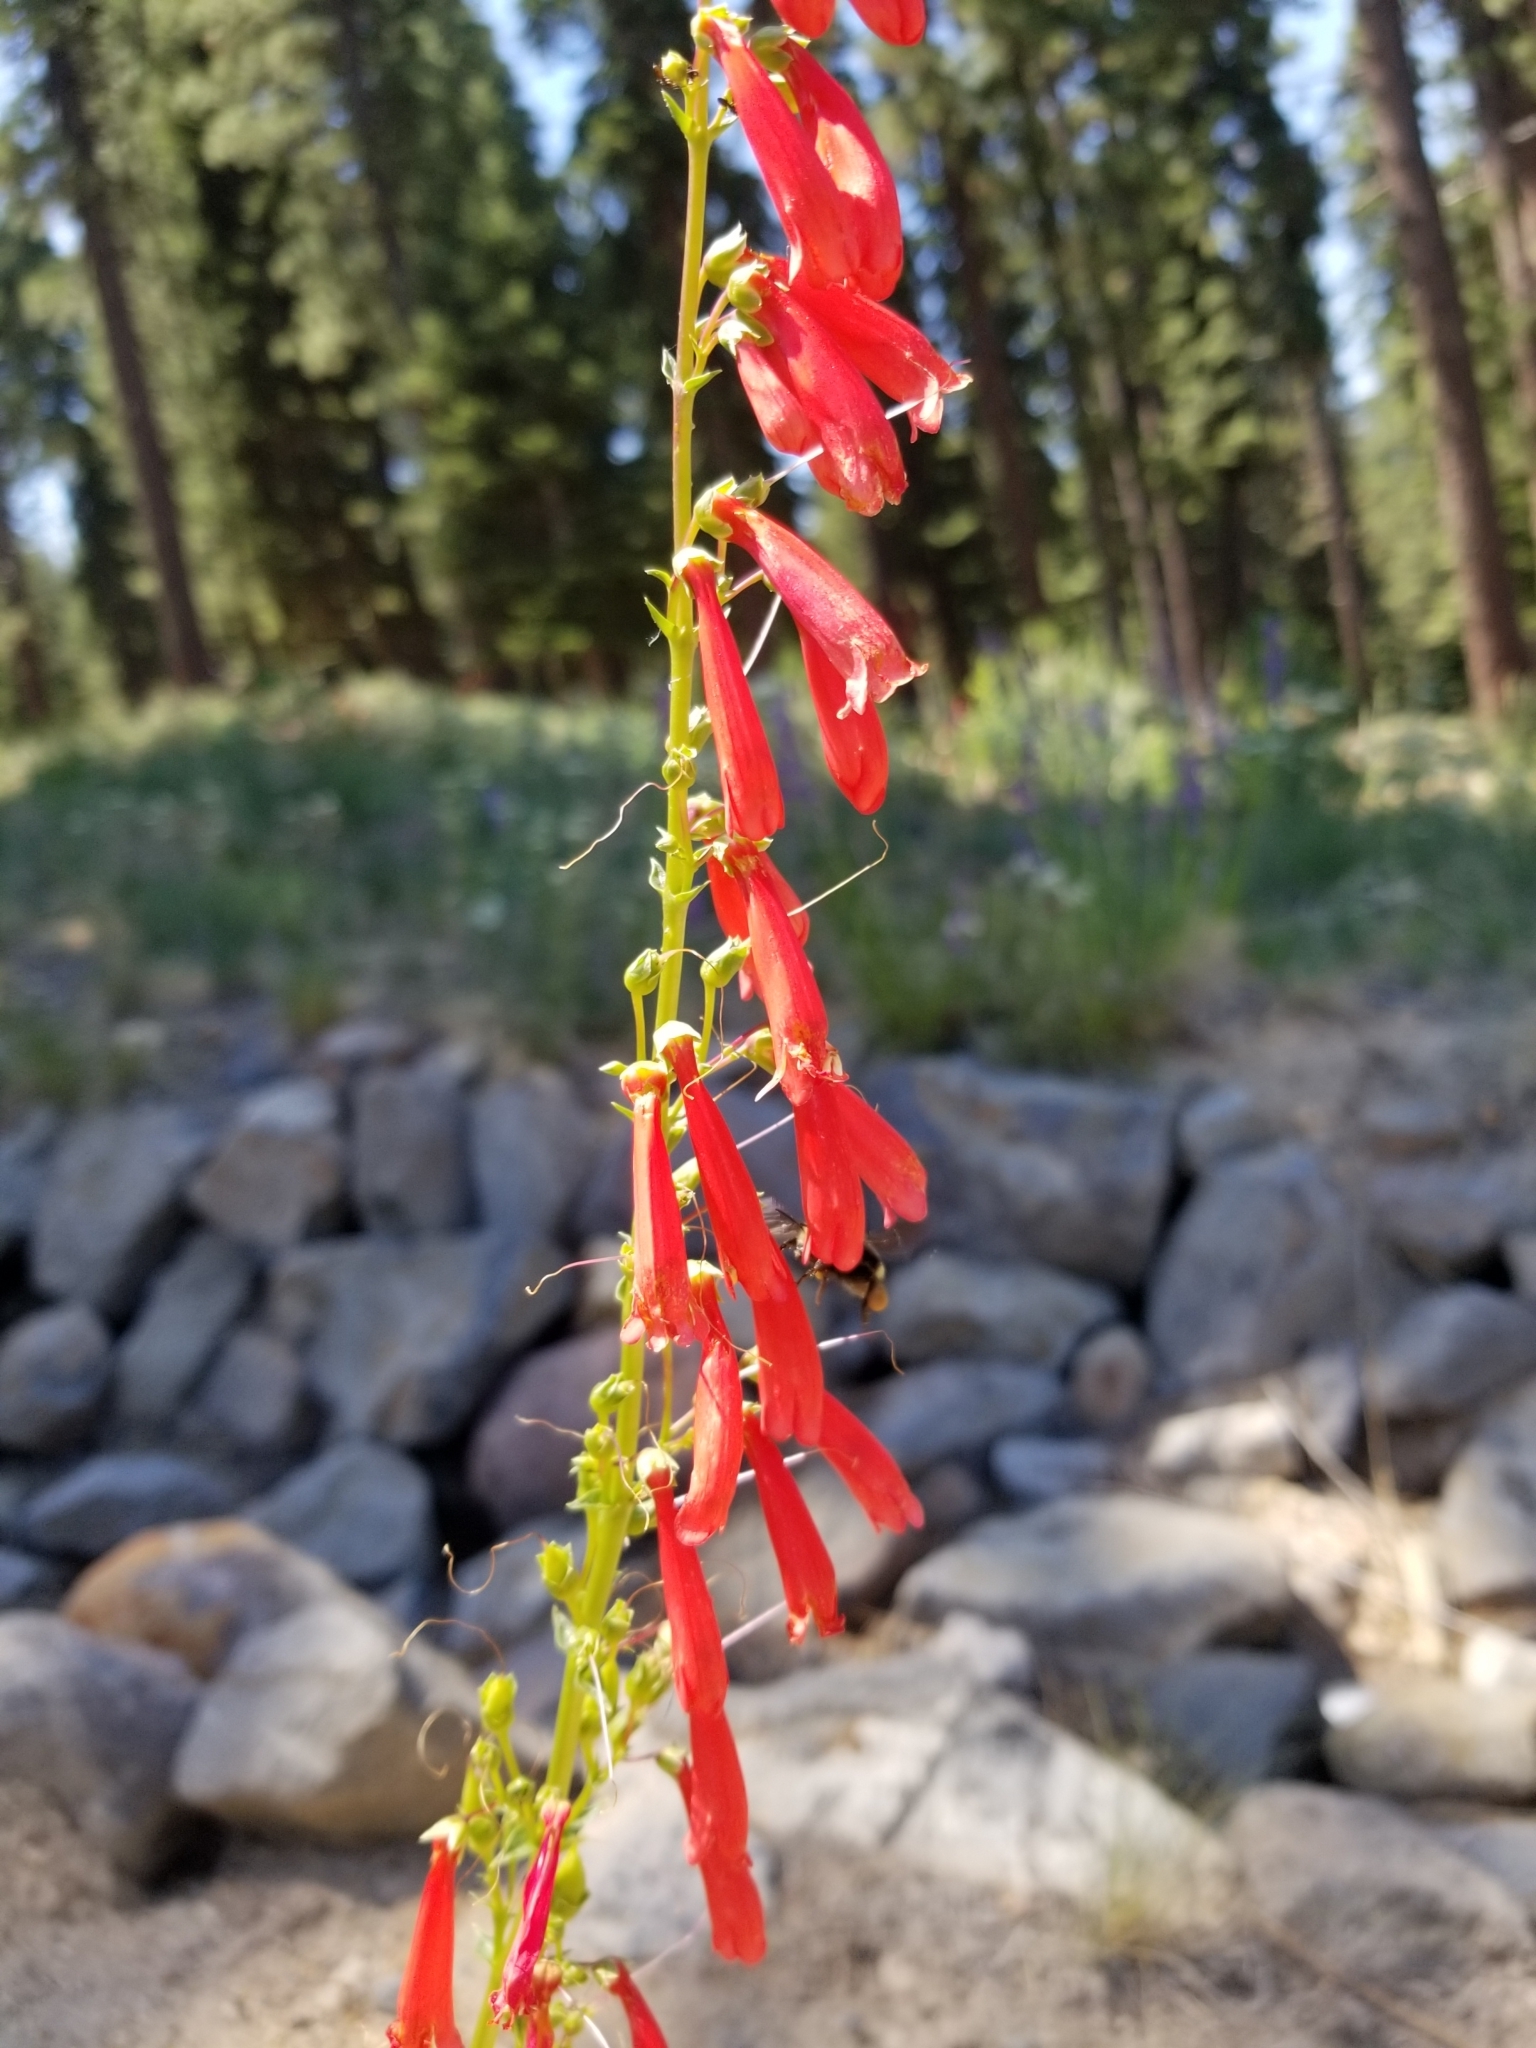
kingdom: Plantae
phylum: Tracheophyta
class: Magnoliopsida
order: Lamiales
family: Plantaginaceae
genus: Penstemon
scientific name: Penstemon eatonii
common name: Eaton's penstemon
